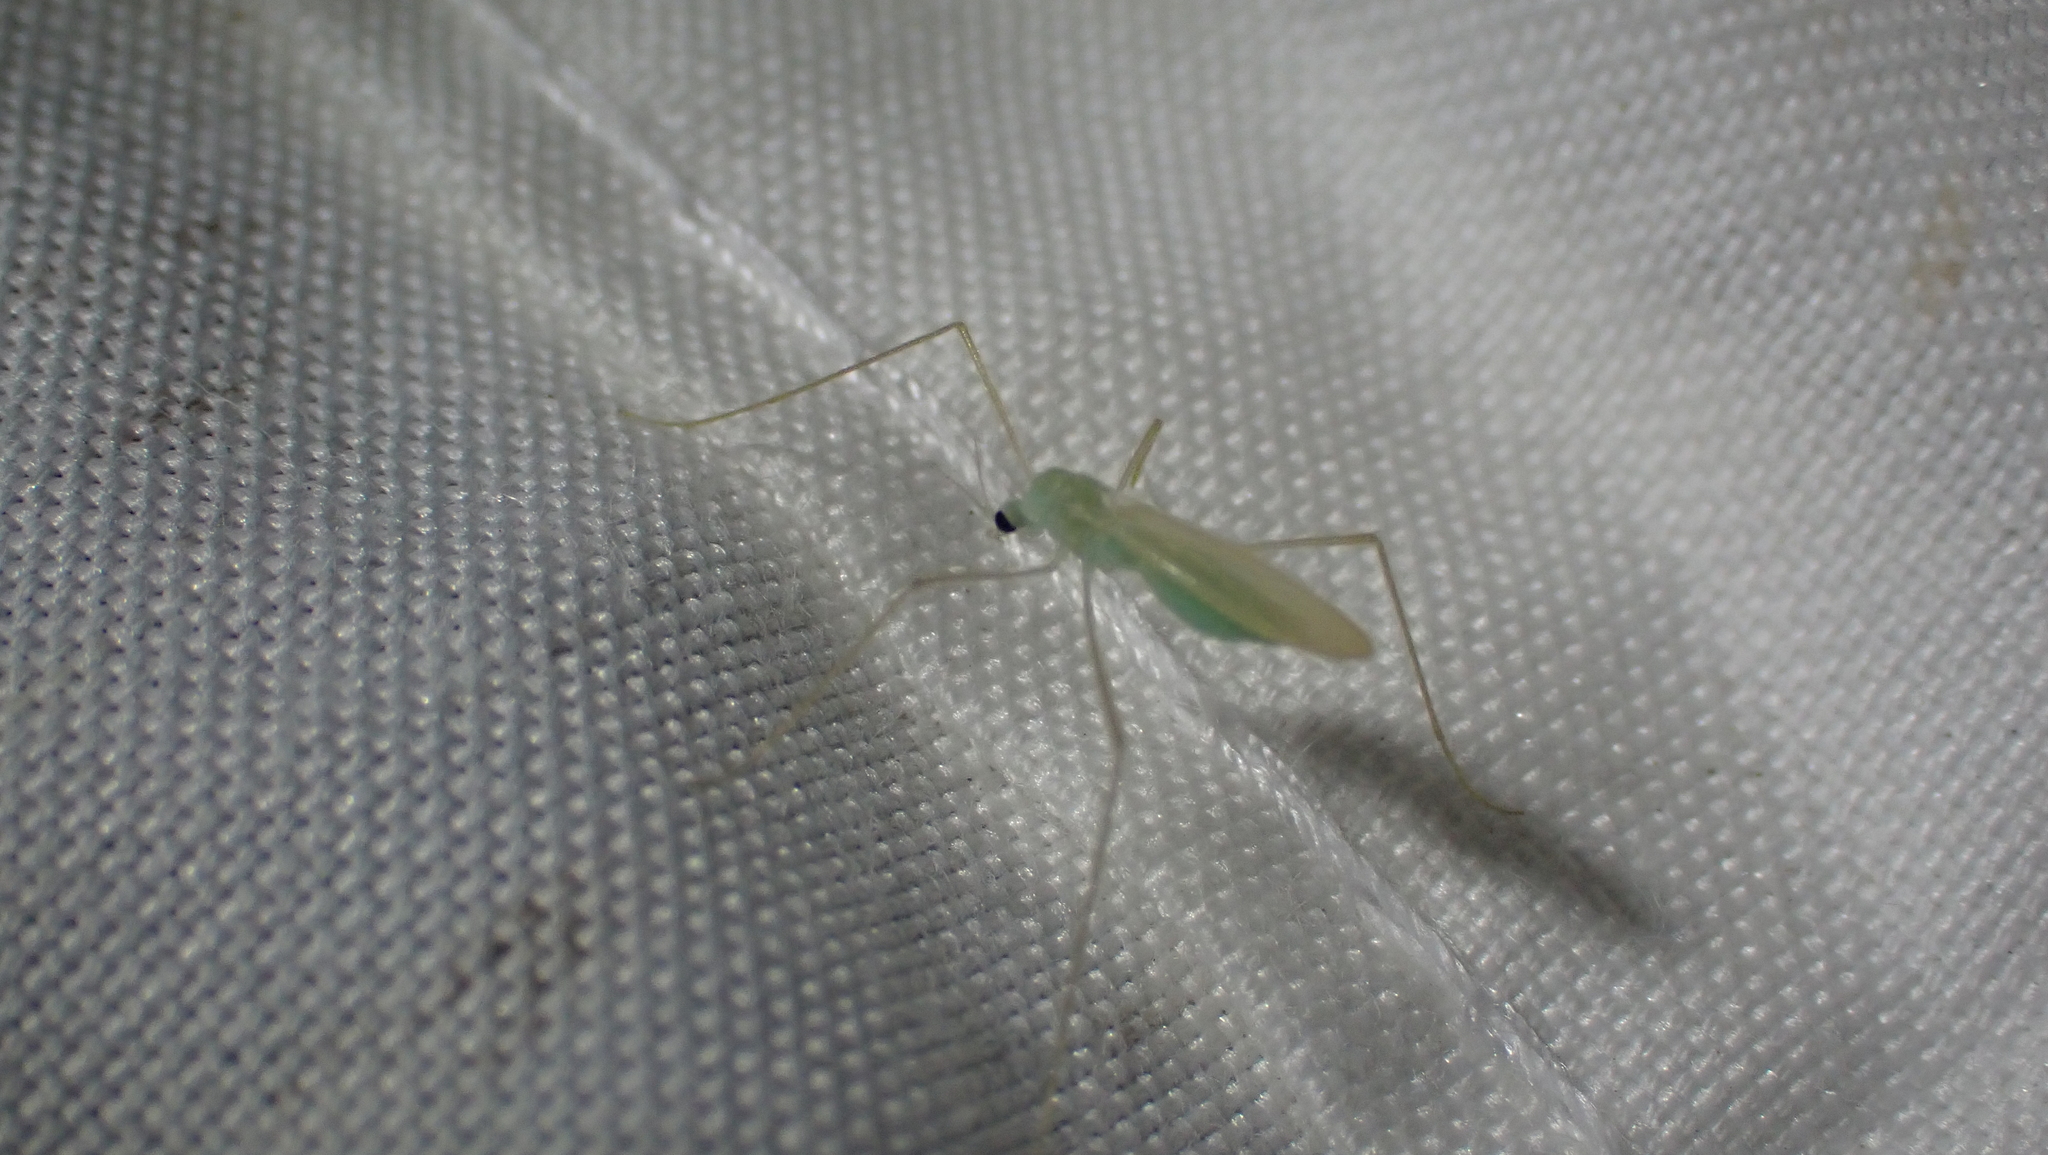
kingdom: Animalia
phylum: Arthropoda
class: Insecta
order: Diptera
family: Limoniidae
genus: Erioptera
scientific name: Erioptera
